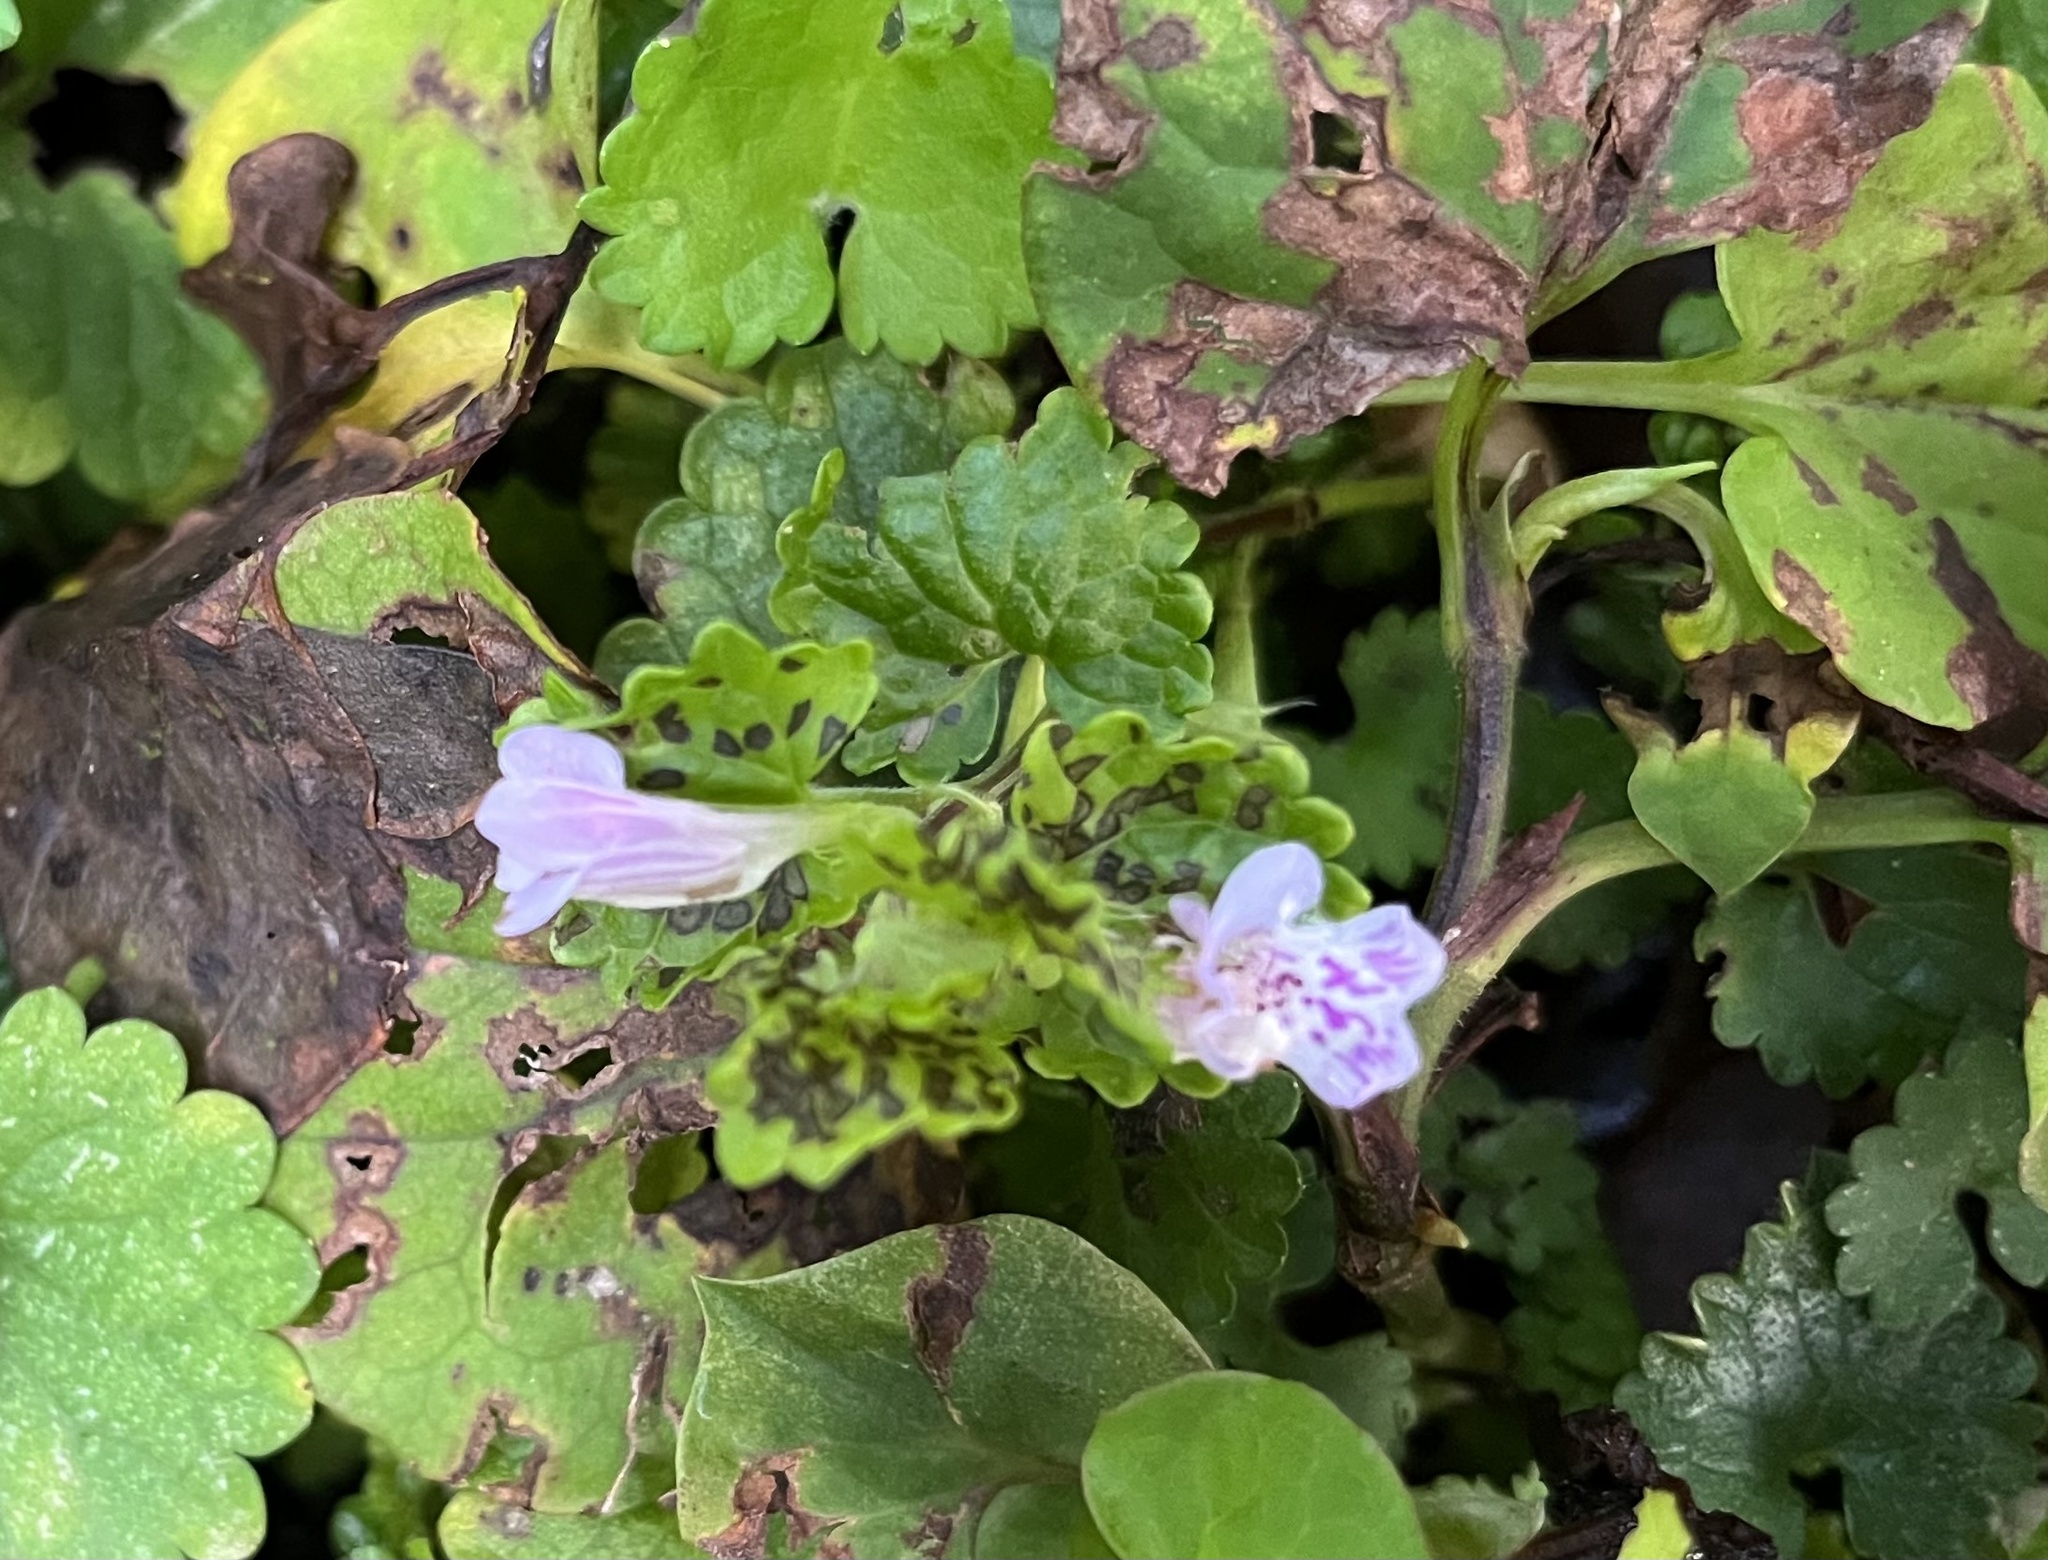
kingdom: Plantae
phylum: Tracheophyta
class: Magnoliopsida
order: Lamiales
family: Lamiaceae
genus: Glechoma
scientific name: Glechoma grandis
